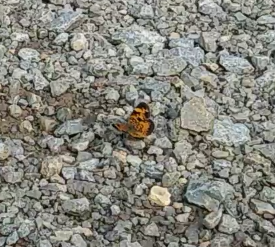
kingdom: Animalia
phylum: Arthropoda
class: Insecta
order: Lepidoptera
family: Nymphalidae
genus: Phyciodes
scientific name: Phyciodes tharos
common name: Pearl crescent
